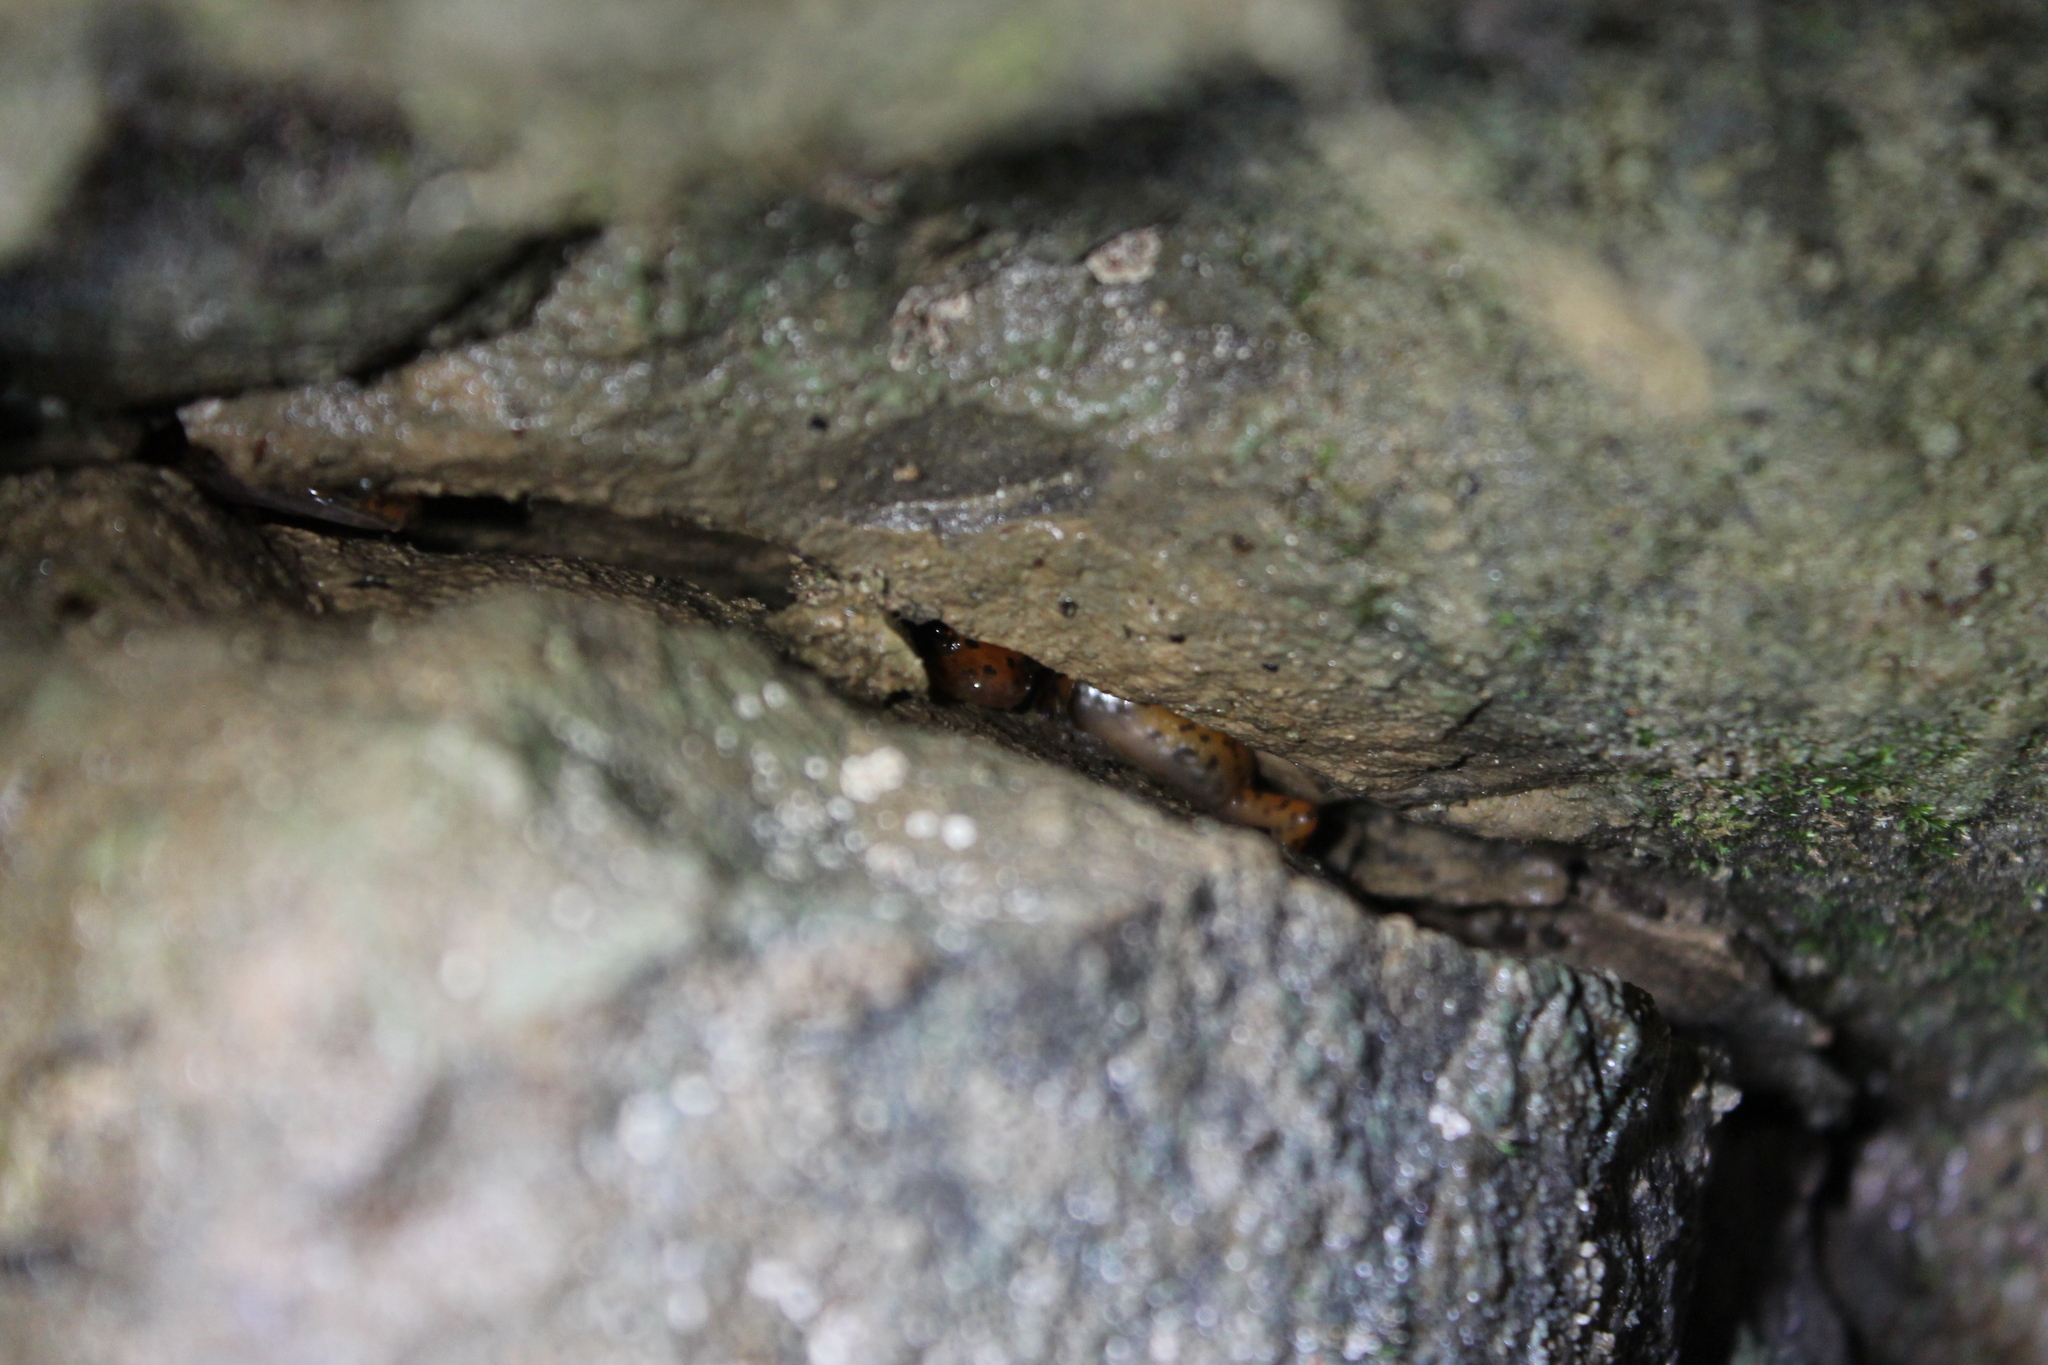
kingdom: Animalia
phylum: Chordata
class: Amphibia
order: Caudata
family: Plethodontidae
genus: Eurycea
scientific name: Eurycea lucifuga
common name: Cave salamander
